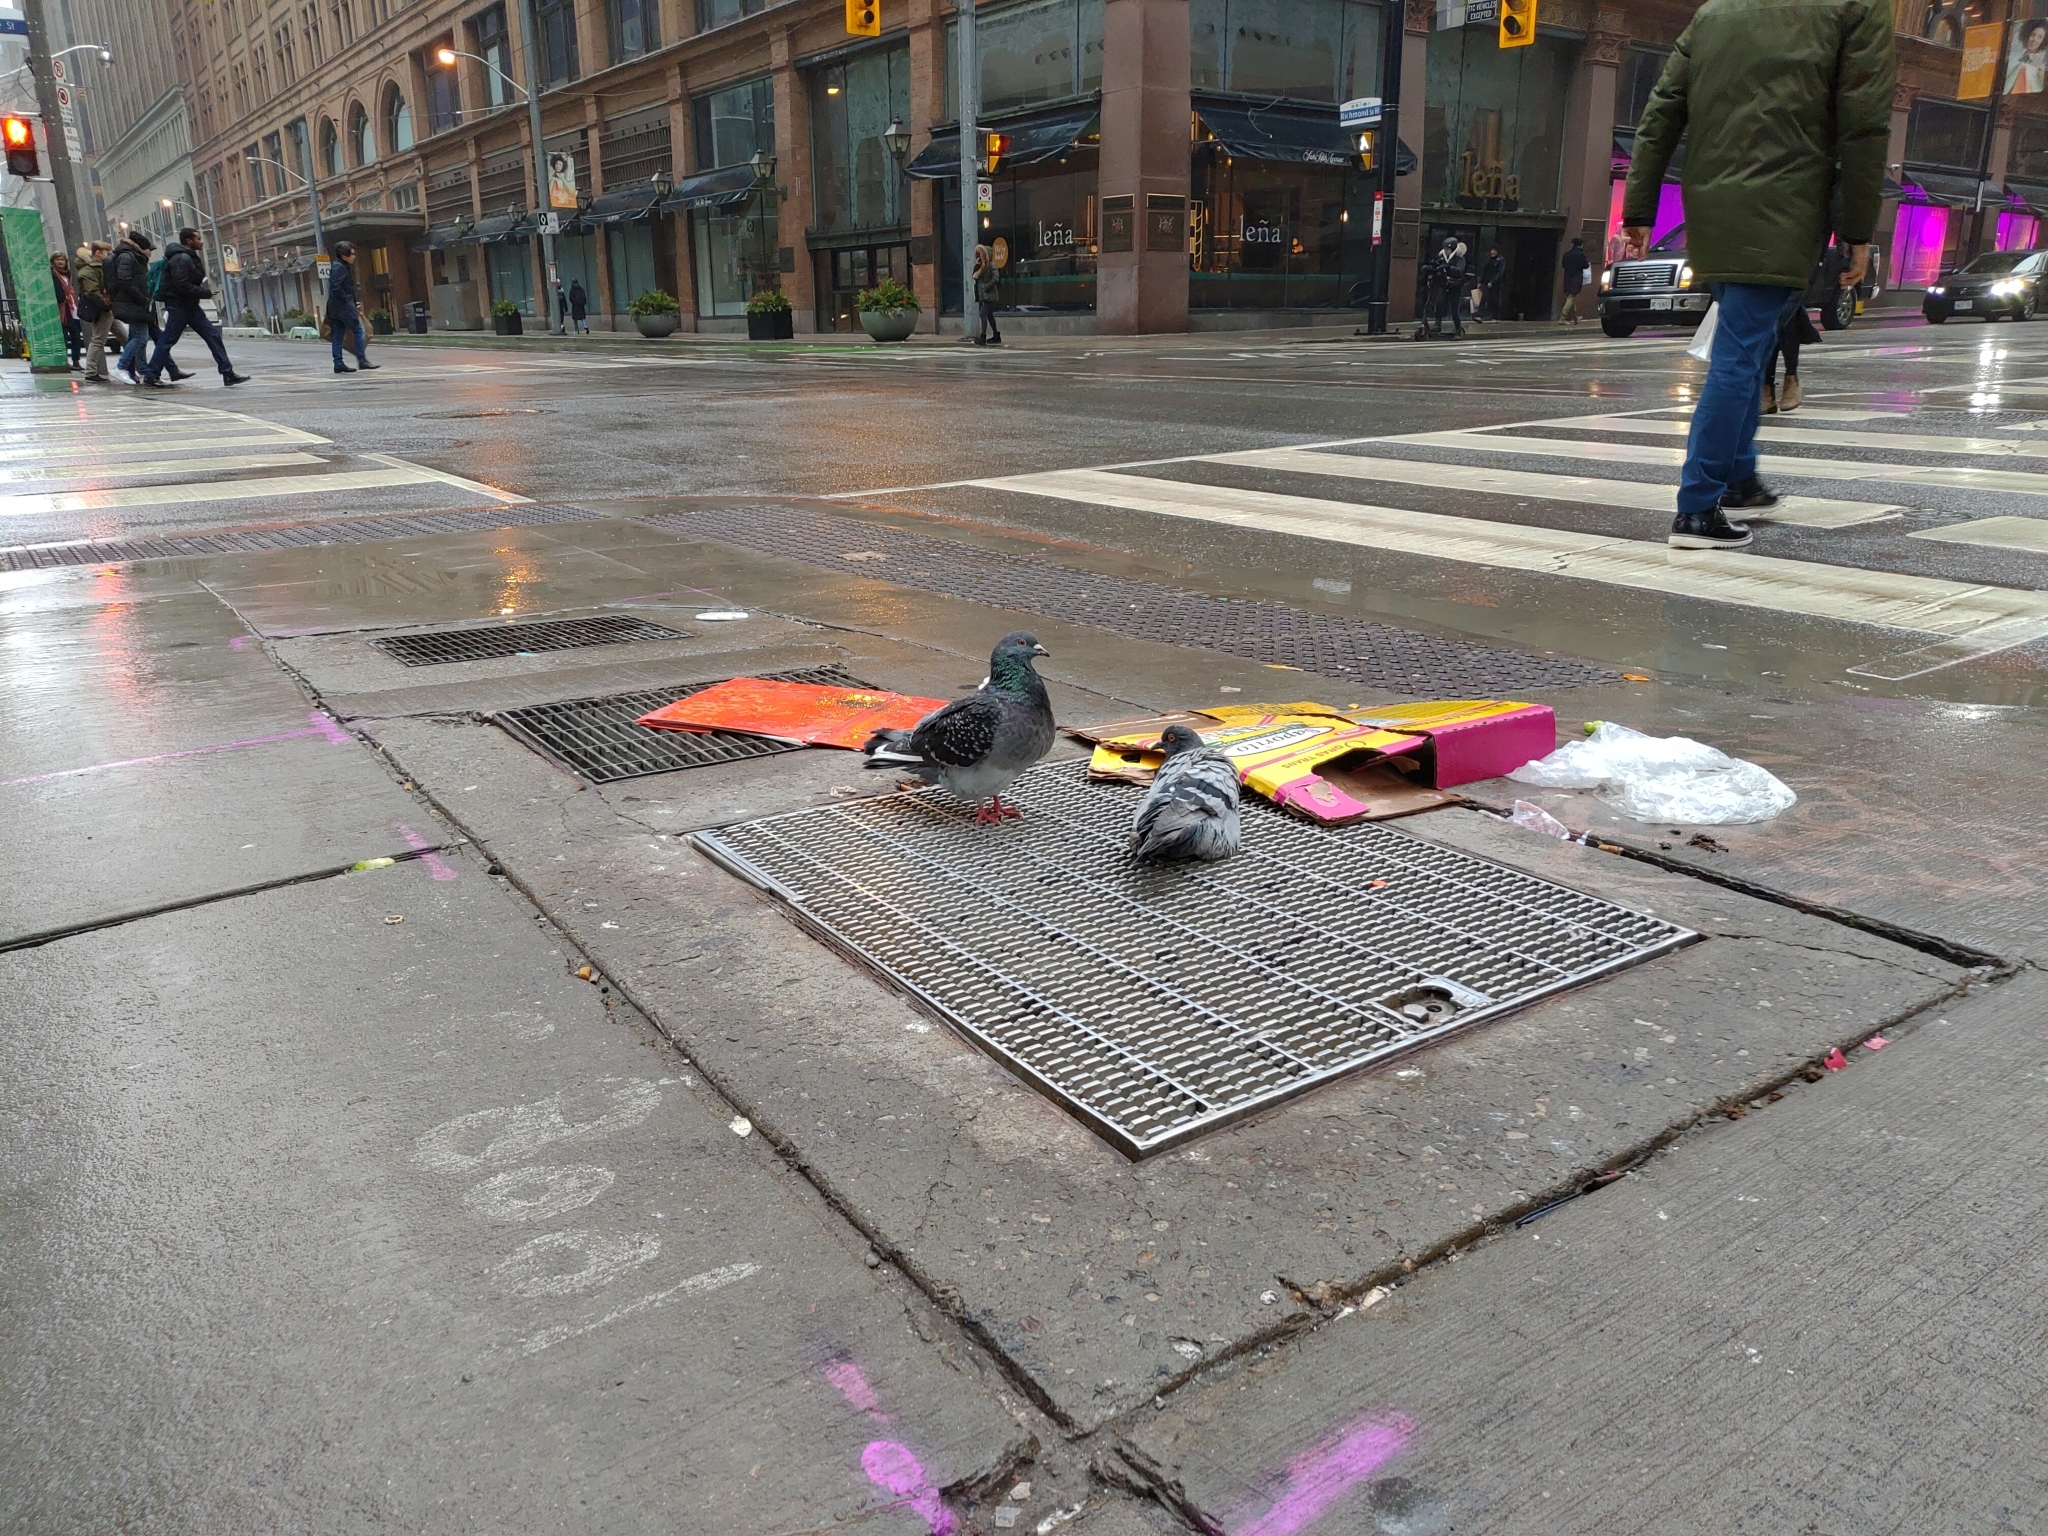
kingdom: Animalia
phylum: Chordata
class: Aves
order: Columbiformes
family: Columbidae
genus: Columba
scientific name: Columba livia
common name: Rock pigeon
